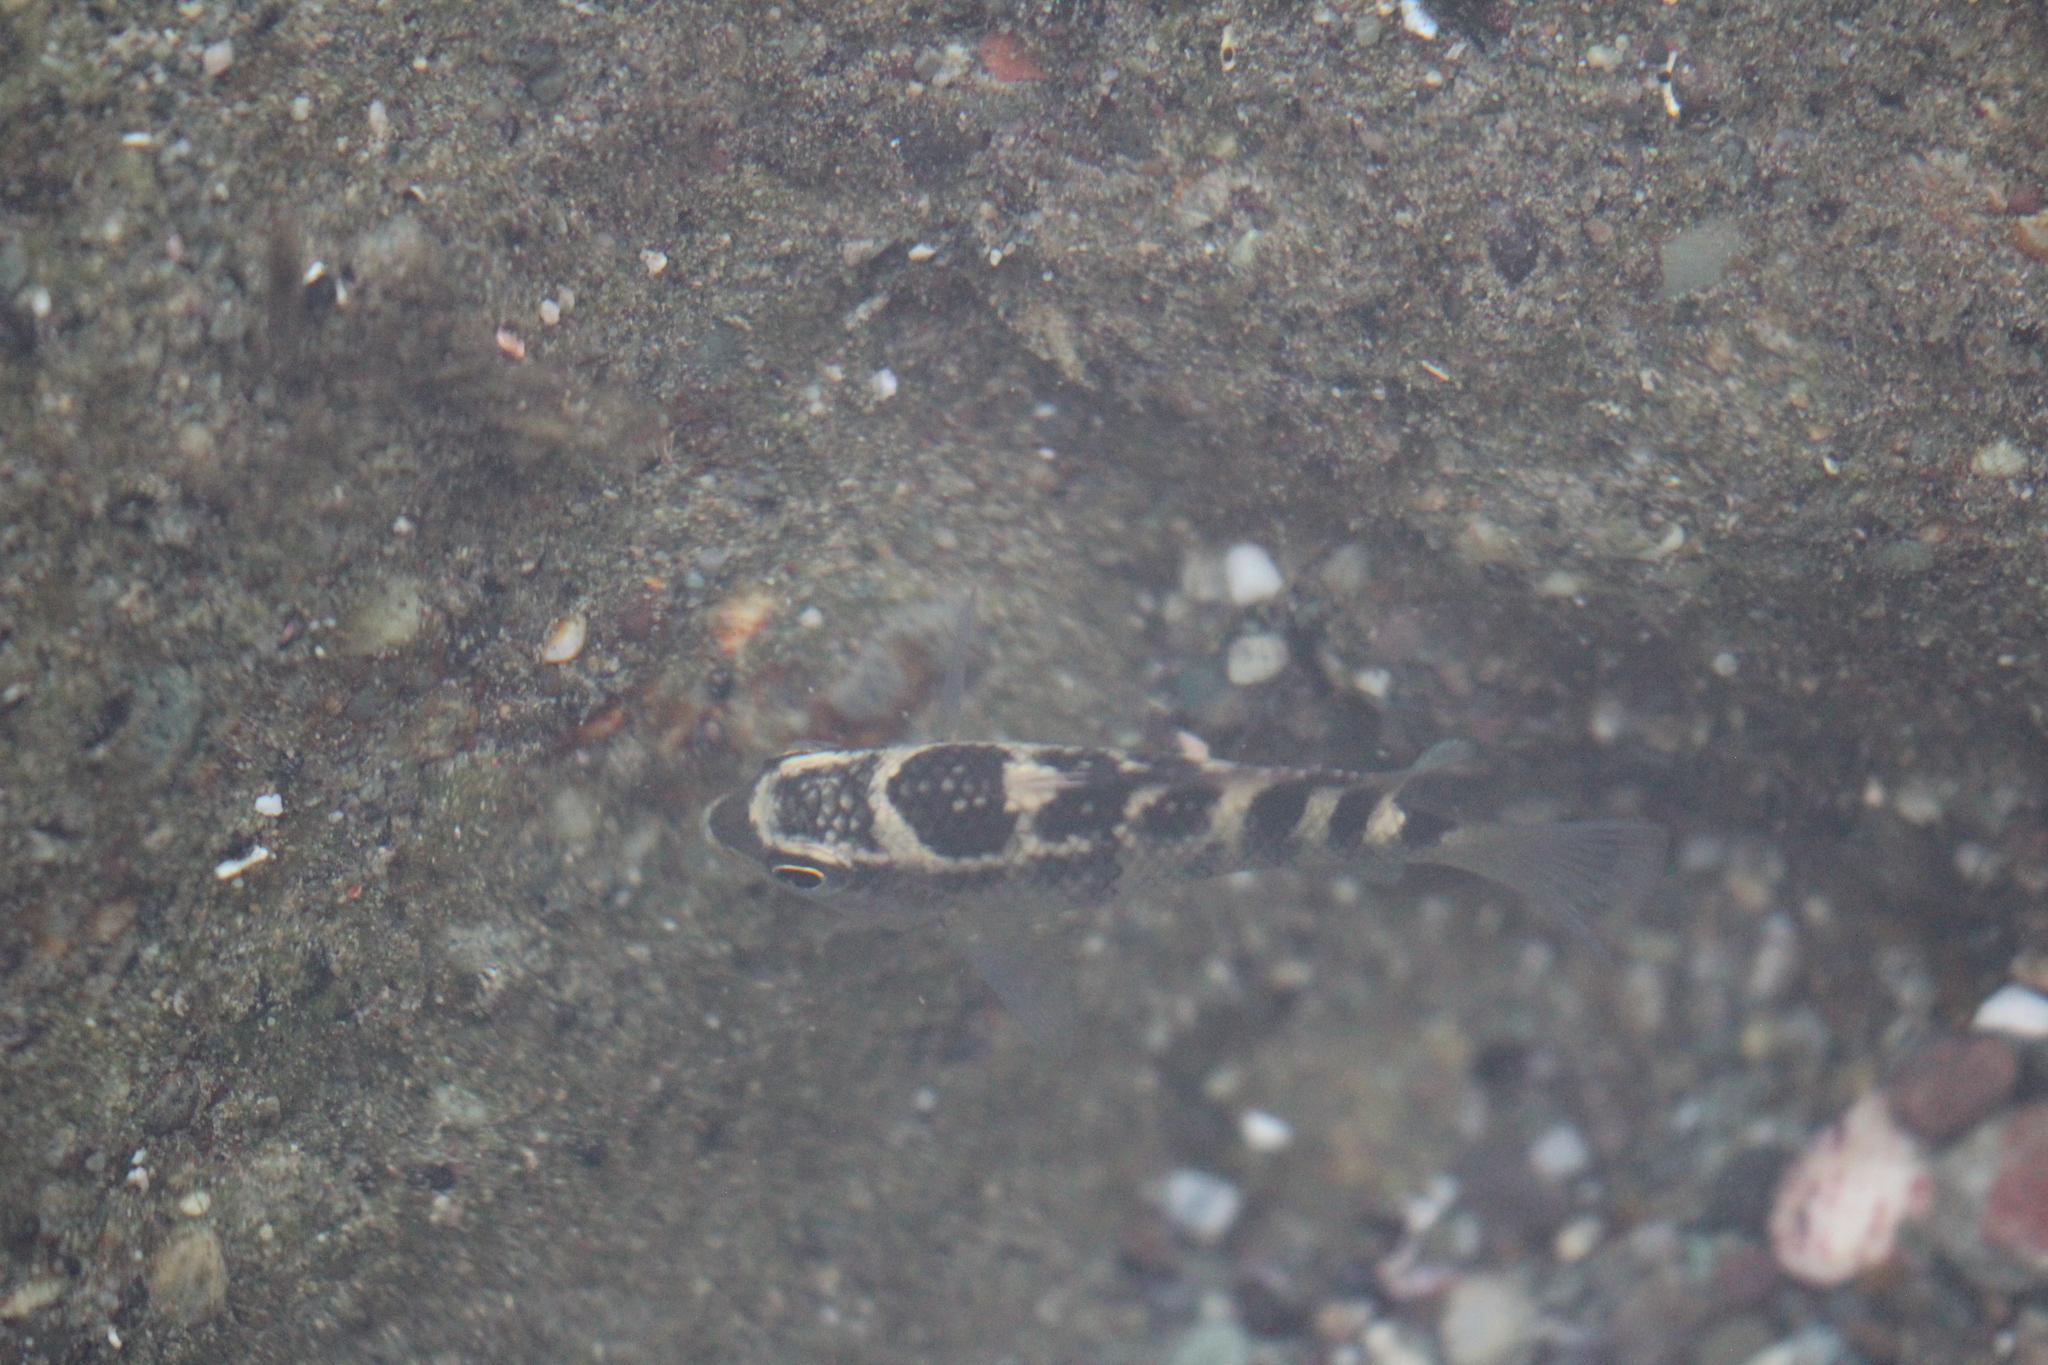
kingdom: Animalia
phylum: Chordata
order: Perciformes
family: Pomacentridae
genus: Abudefduf
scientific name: Abudefduf concolor
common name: Dusky seargent
